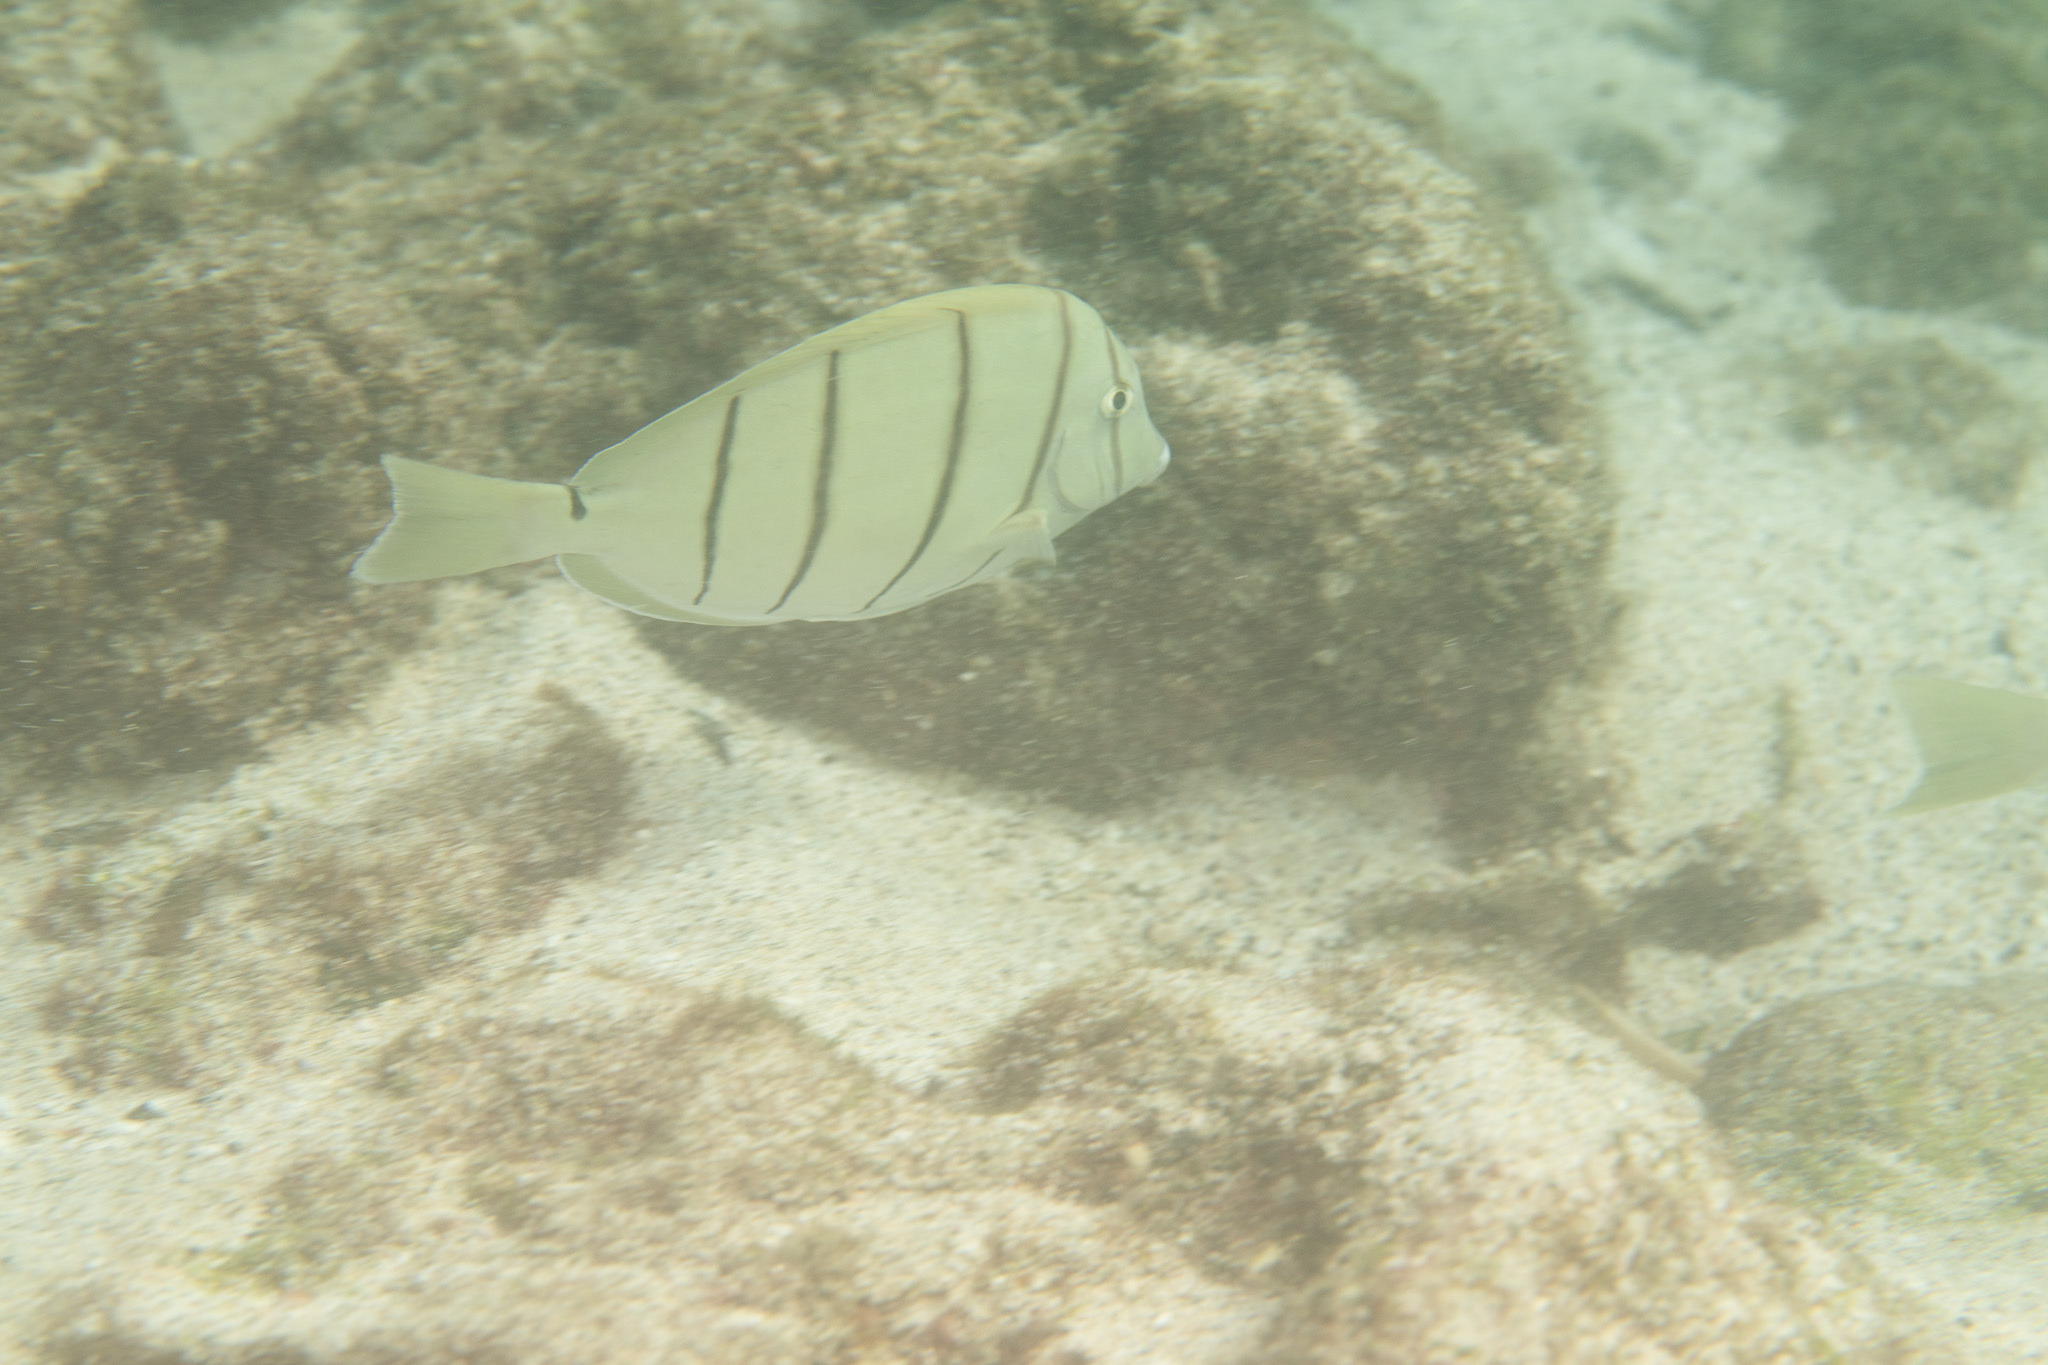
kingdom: Animalia
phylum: Chordata
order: Perciformes
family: Acanthuridae
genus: Acanthurus
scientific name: Acanthurus triostegus
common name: Convict surgeonfish
